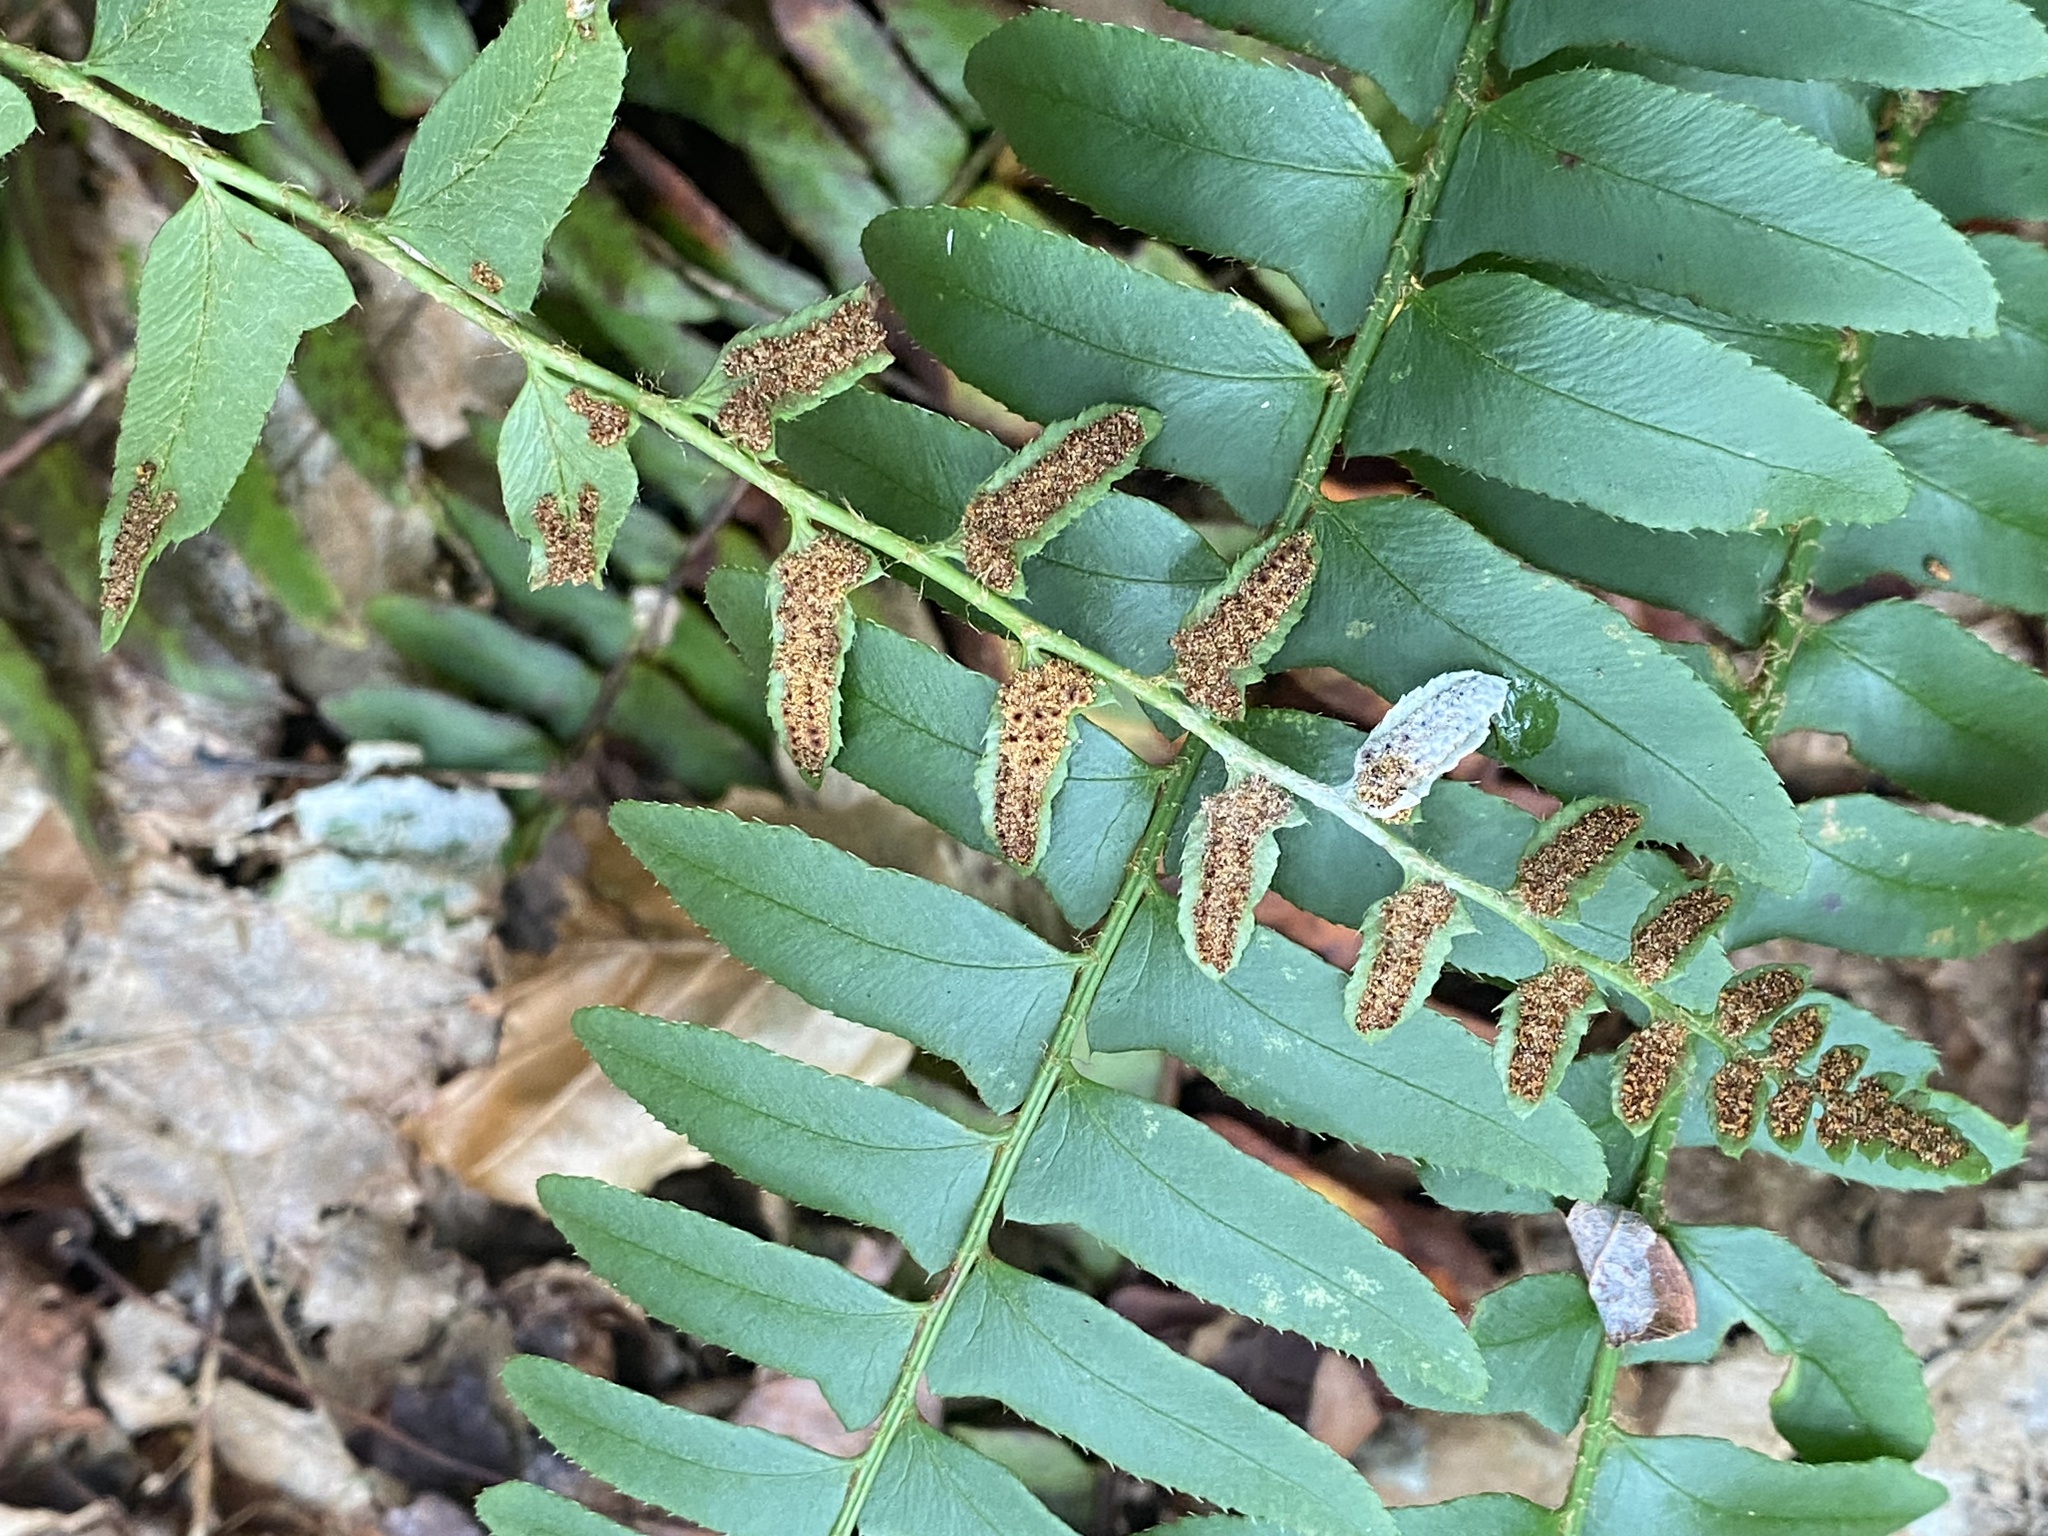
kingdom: Plantae
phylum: Tracheophyta
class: Polypodiopsida
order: Polypodiales
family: Dryopteridaceae
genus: Polystichum
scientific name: Polystichum acrostichoides
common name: Christmas fern
